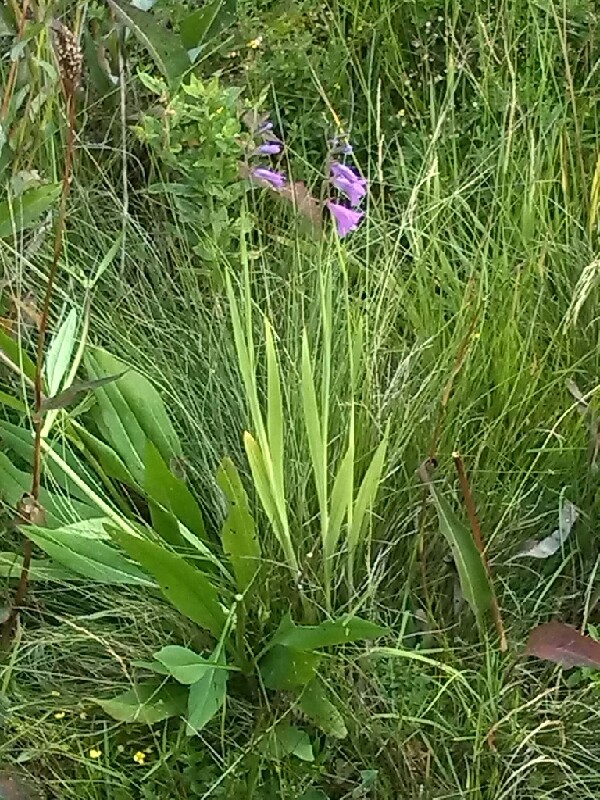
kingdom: Plantae
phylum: Tracheophyta
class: Liliopsida
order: Asparagales
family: Iridaceae
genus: Gladiolus
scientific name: Gladiolus imbricatus
